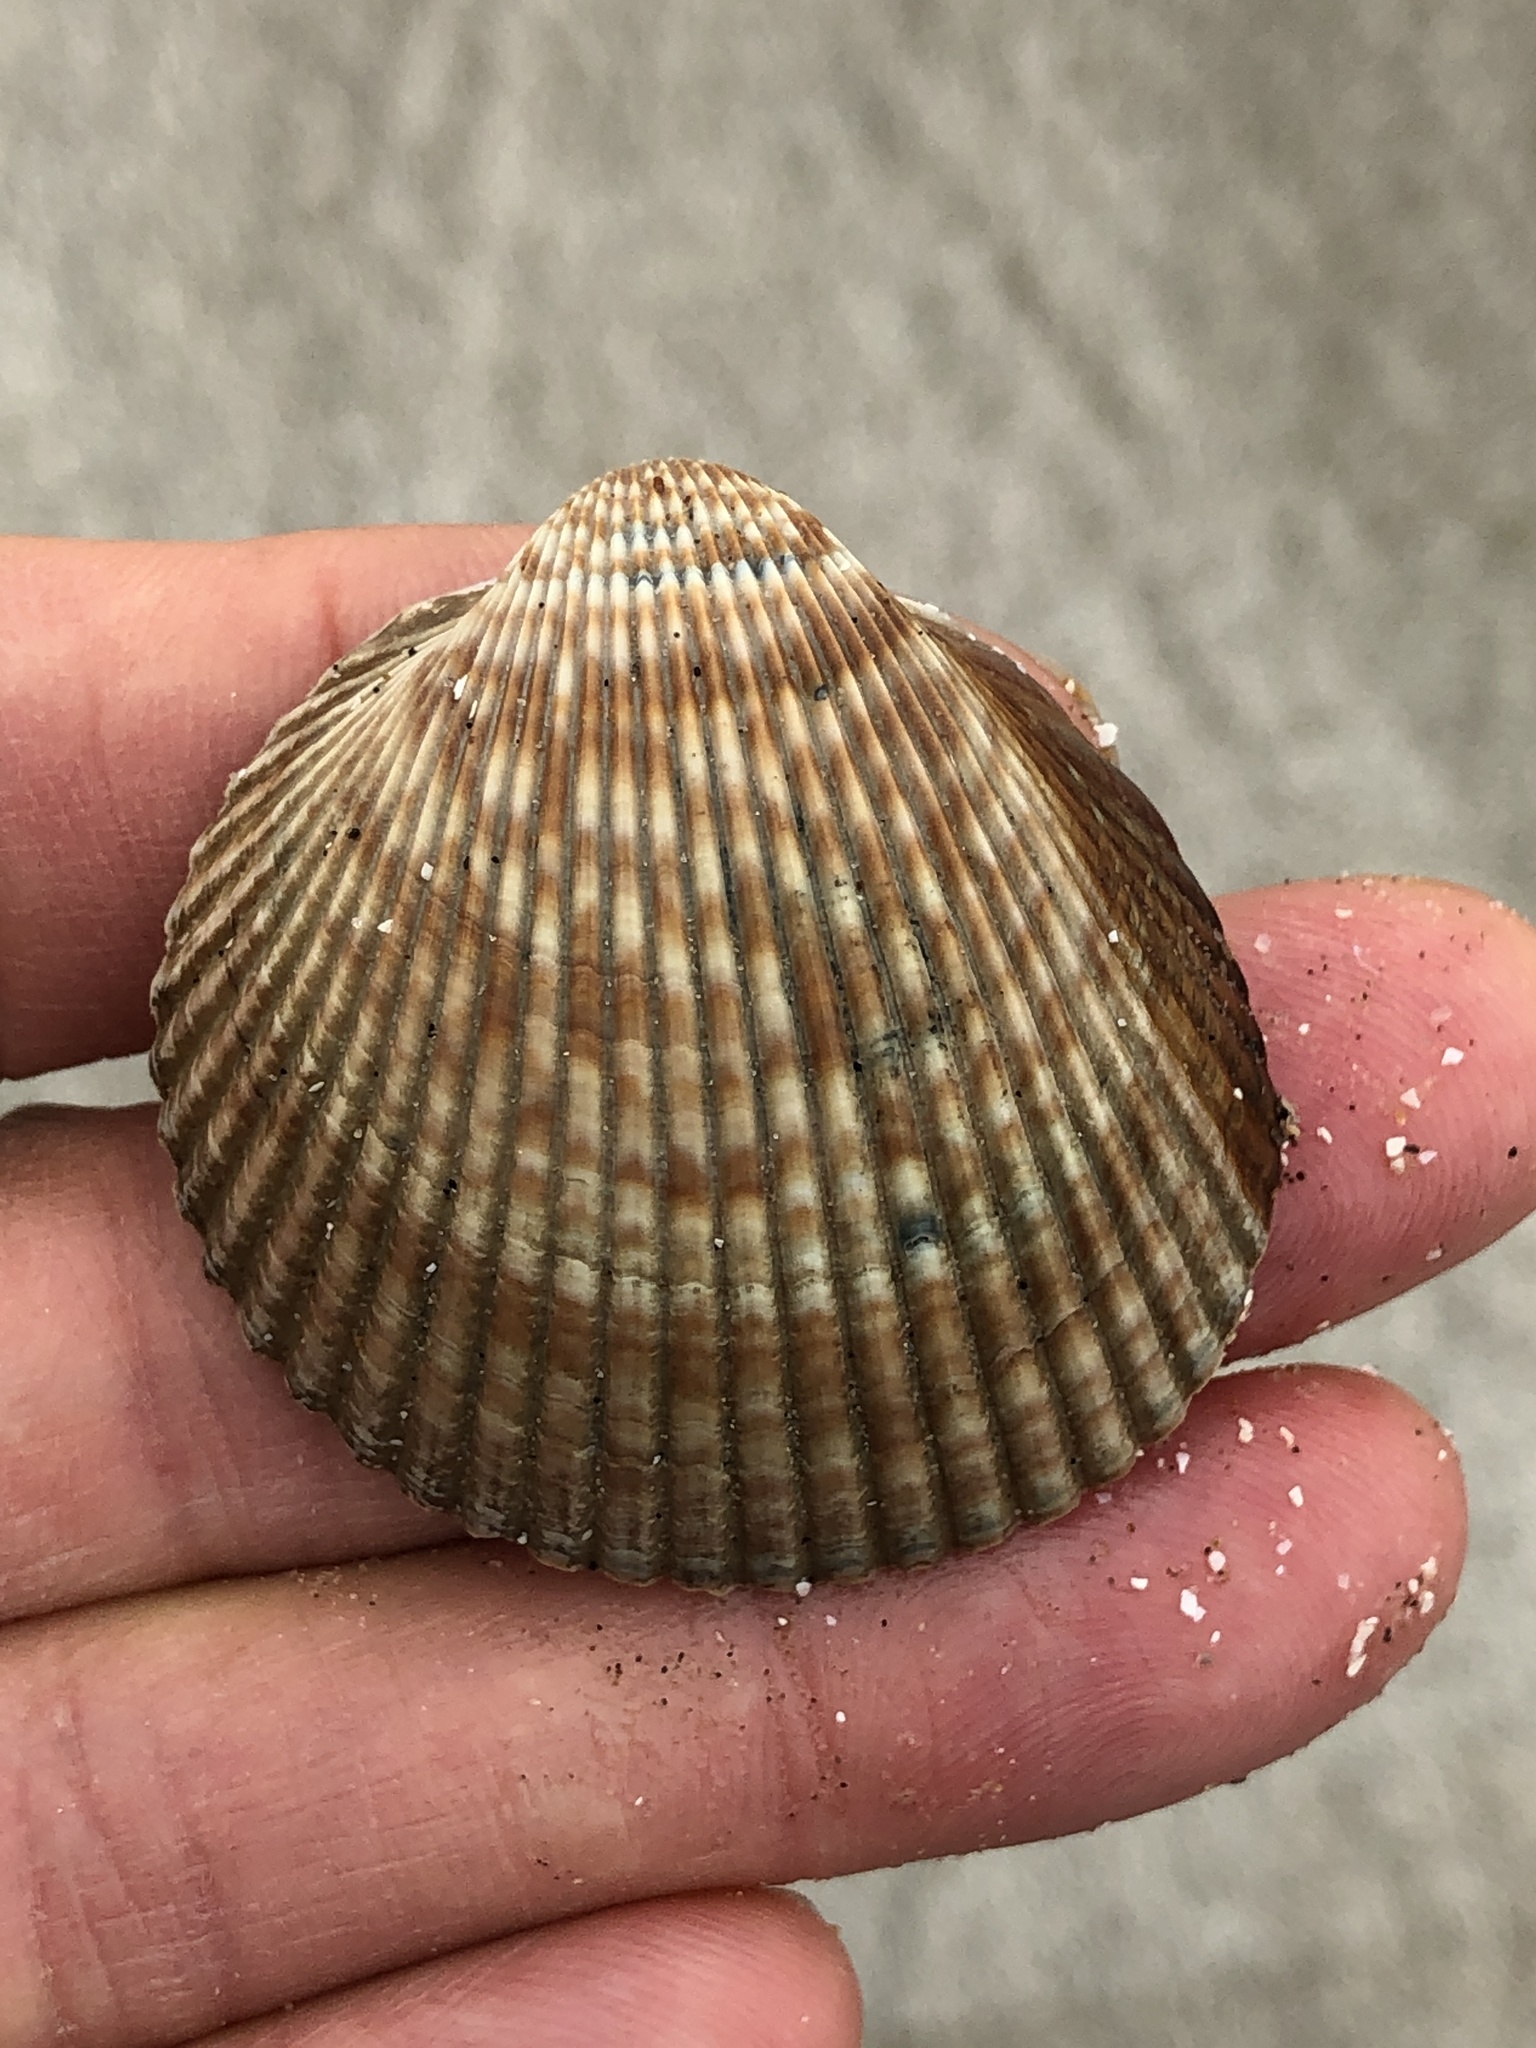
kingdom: Animalia
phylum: Mollusca
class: Bivalvia
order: Cardiida
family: Cardiidae
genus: Dinocardium
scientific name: Dinocardium robustum
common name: Atlantic giant cockle
